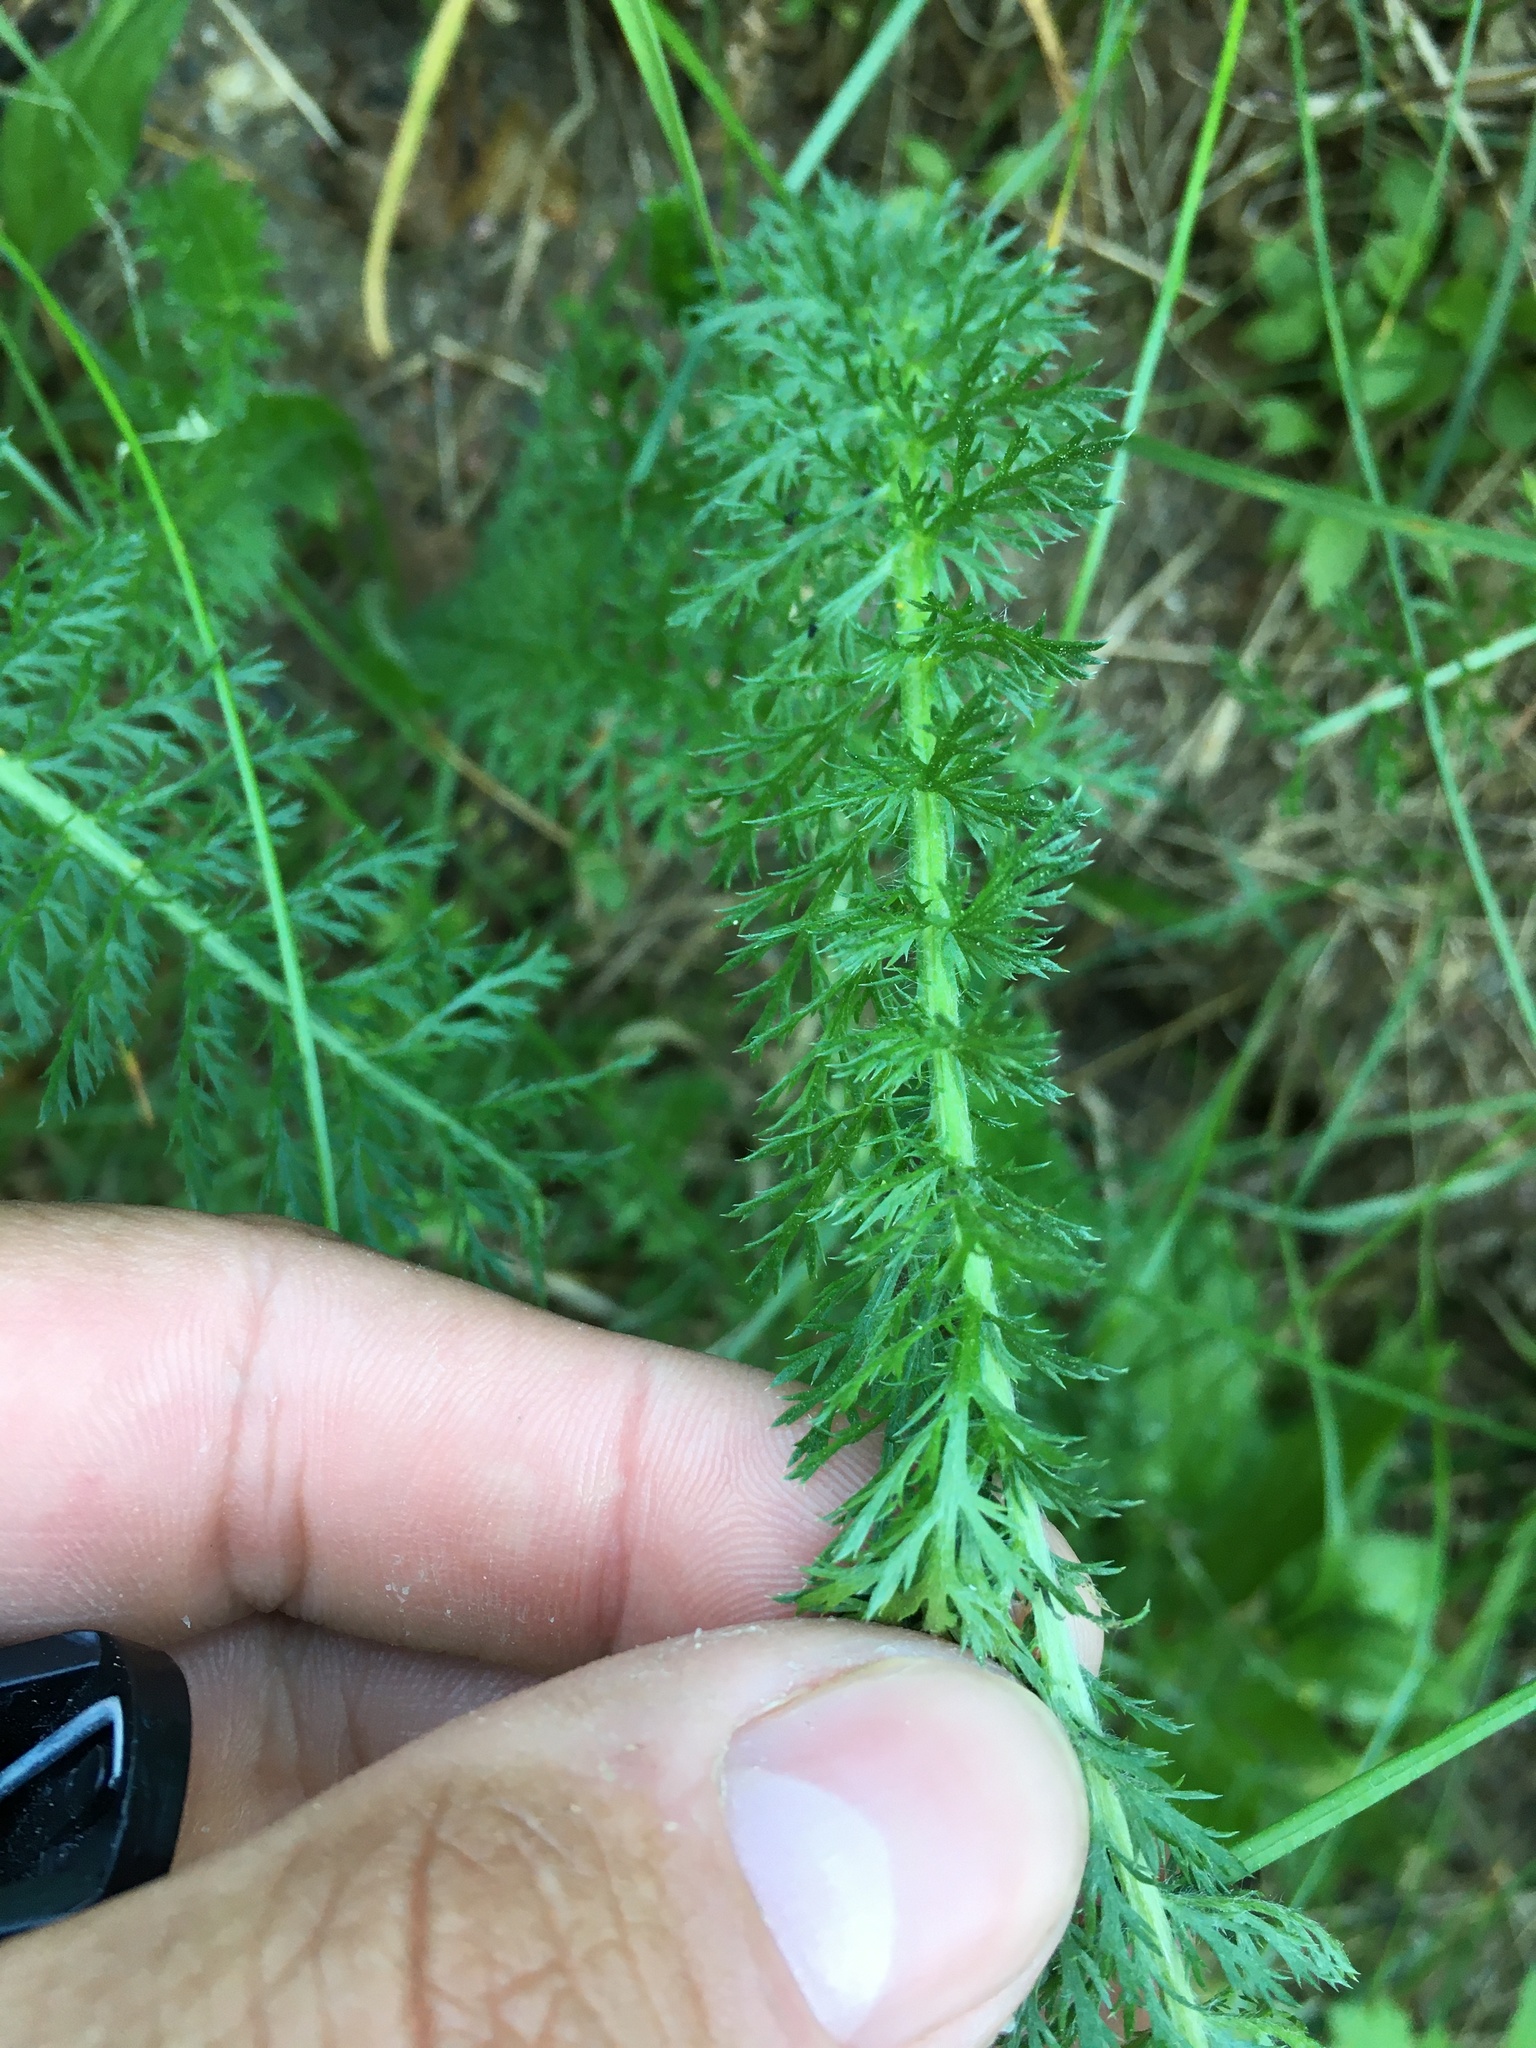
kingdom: Plantae
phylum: Tracheophyta
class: Magnoliopsida
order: Asterales
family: Asteraceae
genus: Achillea
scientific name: Achillea millefolium
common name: Yarrow
